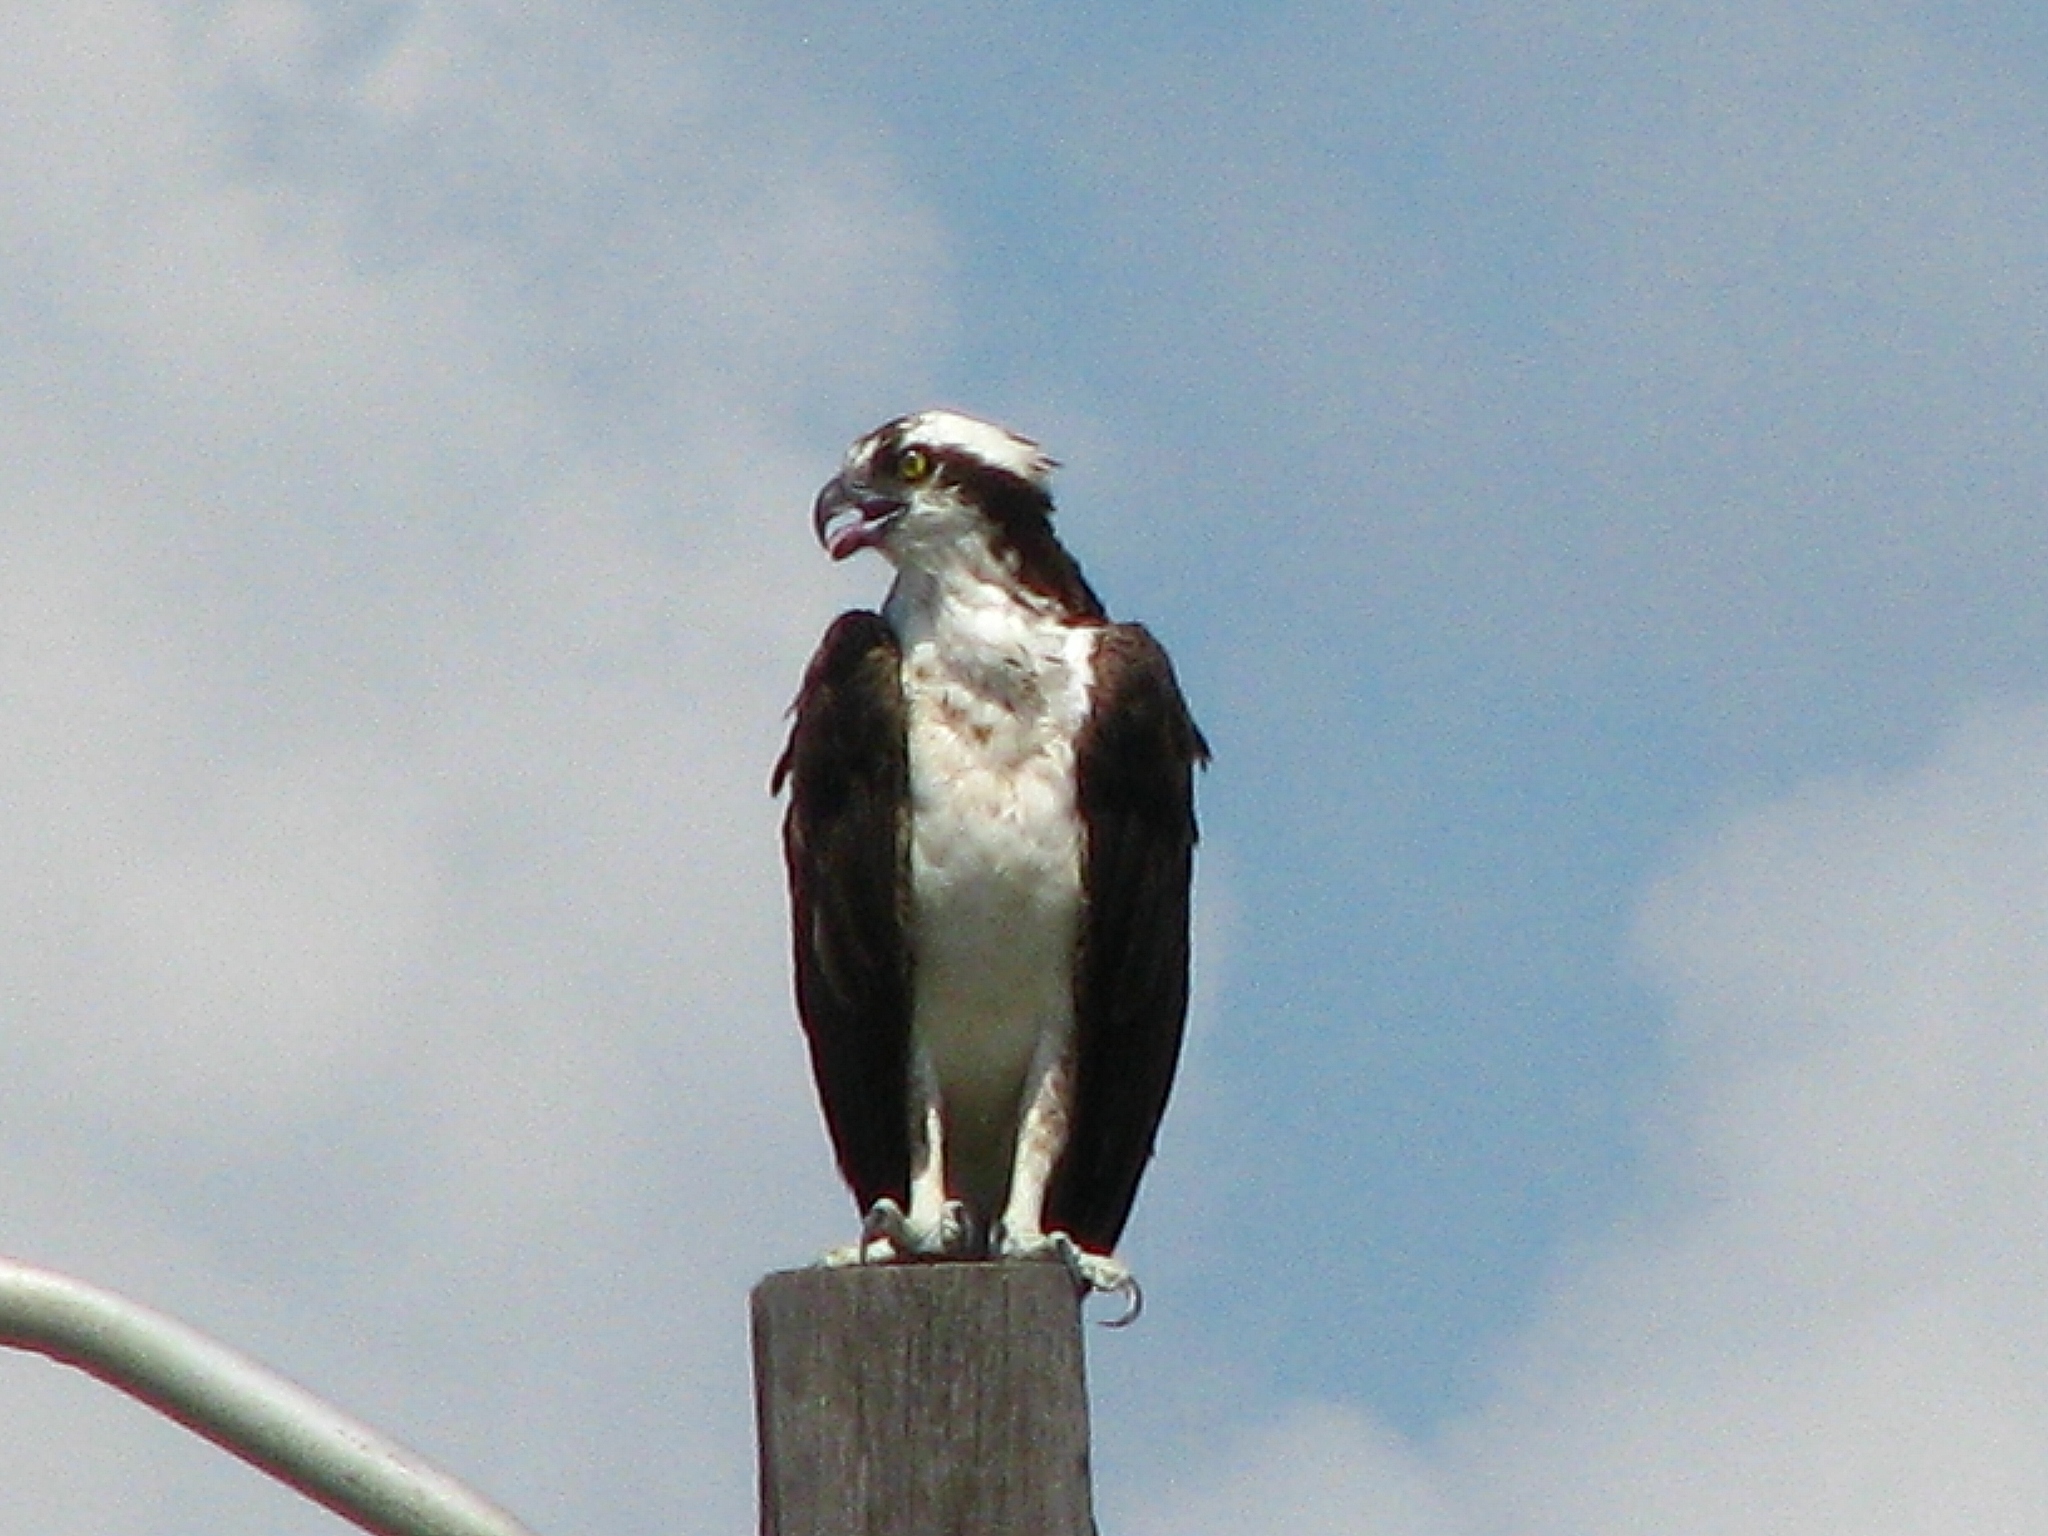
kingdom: Animalia
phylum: Chordata
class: Aves
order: Accipitriformes
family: Pandionidae
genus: Pandion
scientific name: Pandion haliaetus
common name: Osprey
